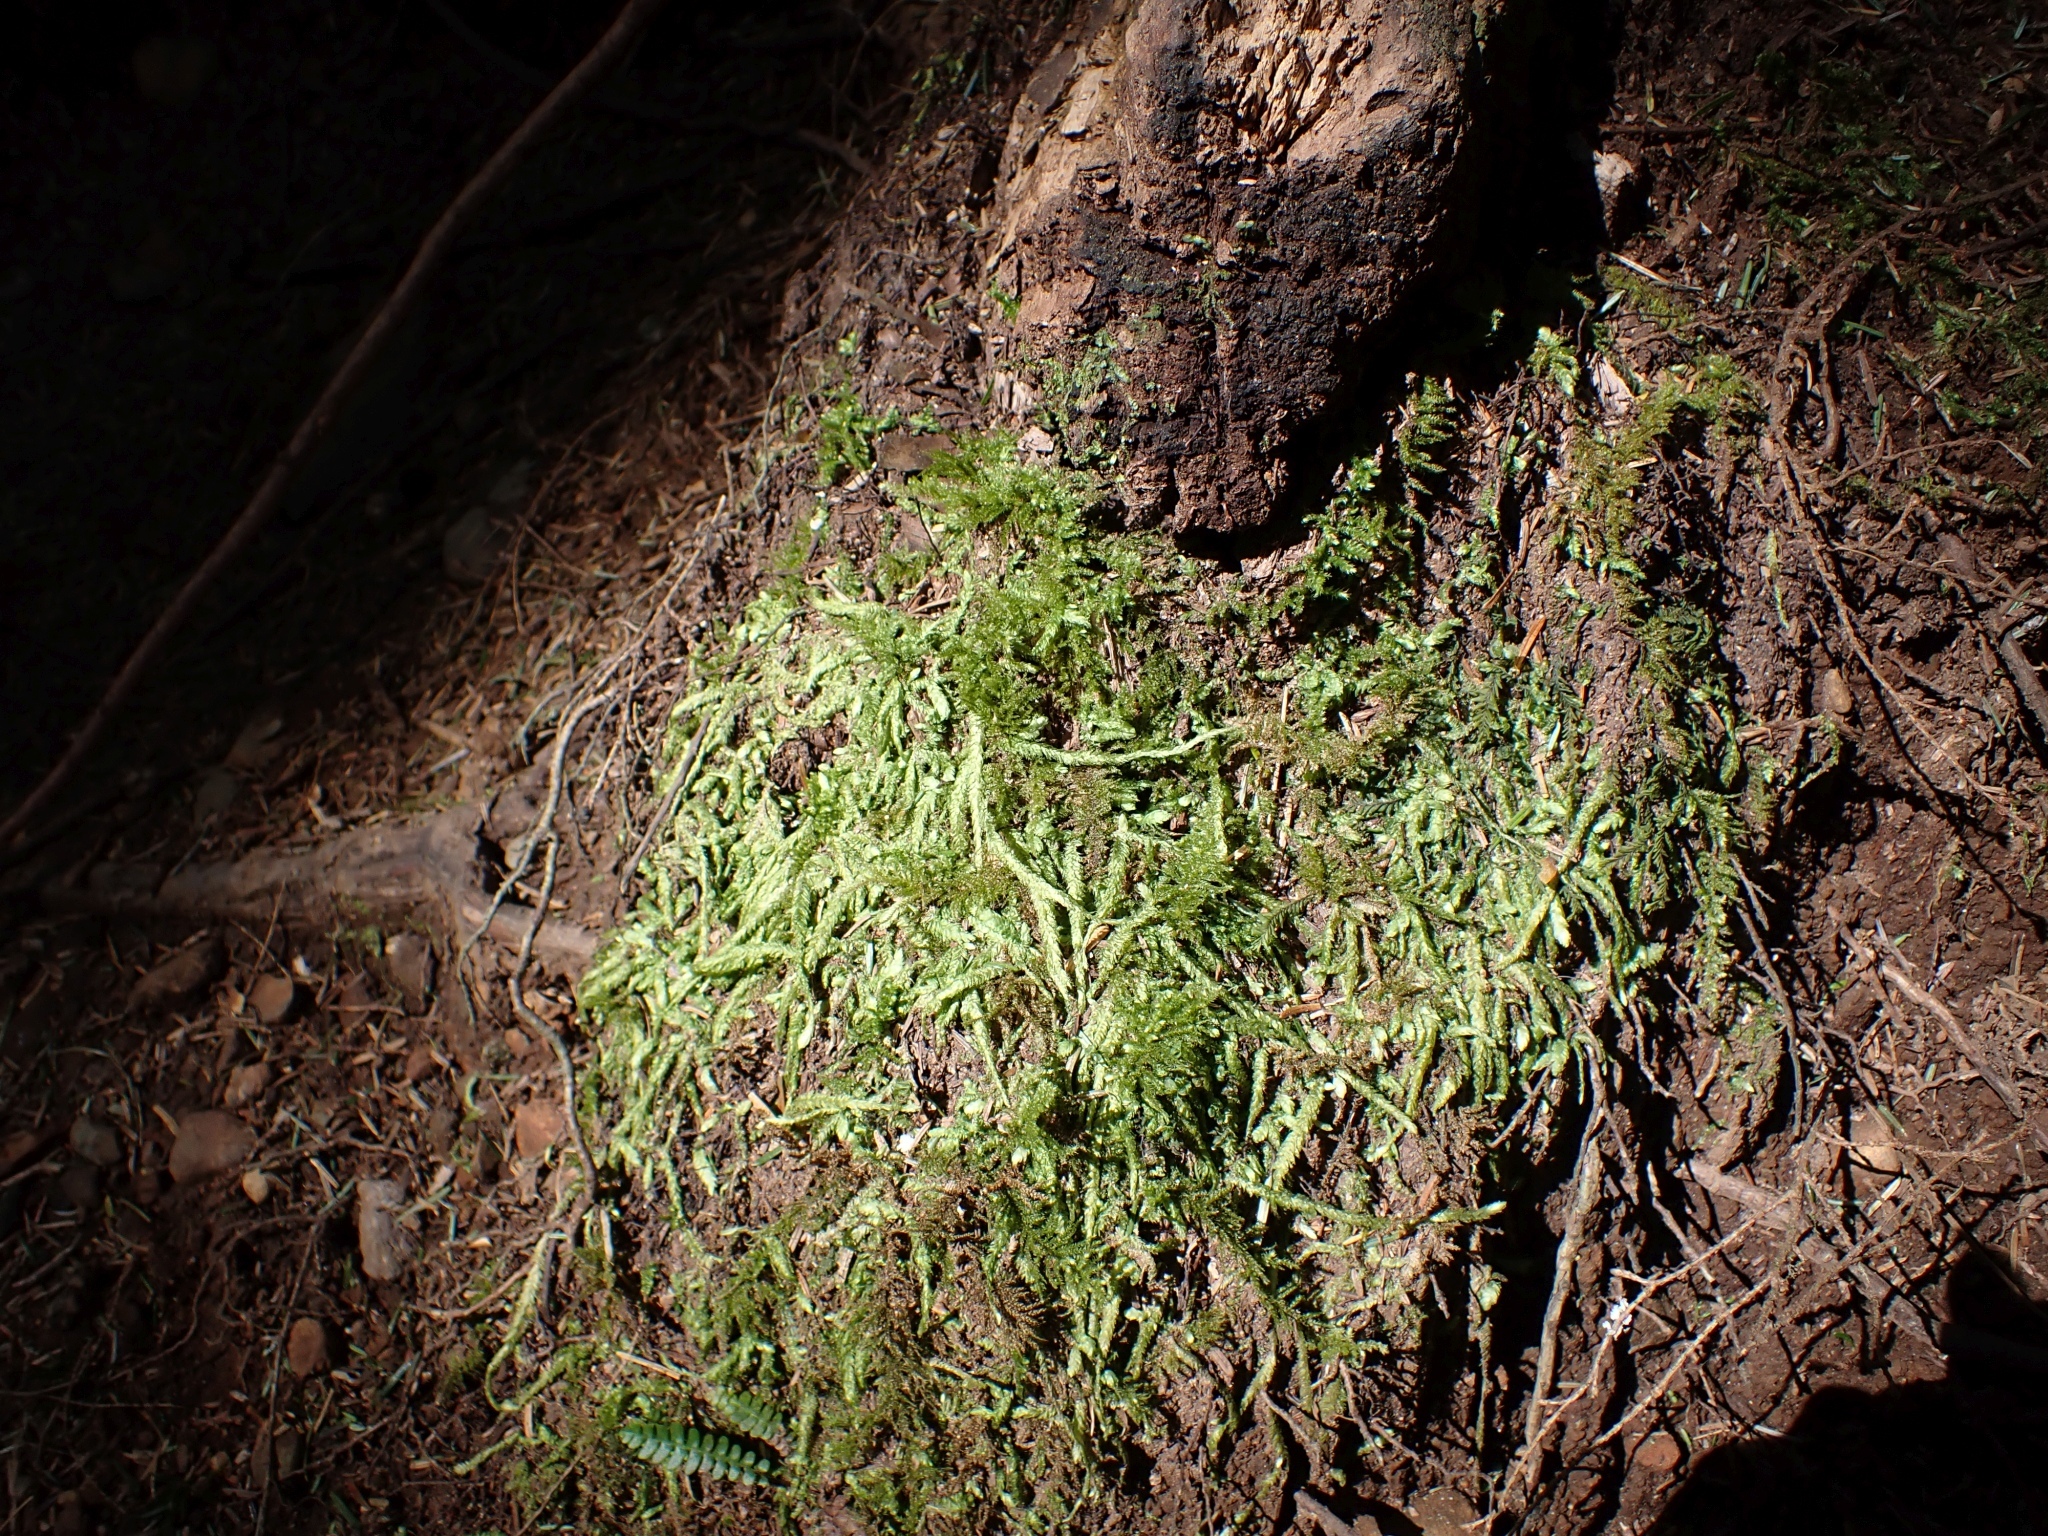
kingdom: Plantae
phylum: Bryophyta
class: Bryopsida
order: Hypnales
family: Plagiotheciaceae
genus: Plagiothecium
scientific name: Plagiothecium undulatum
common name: Waved silk-moss
